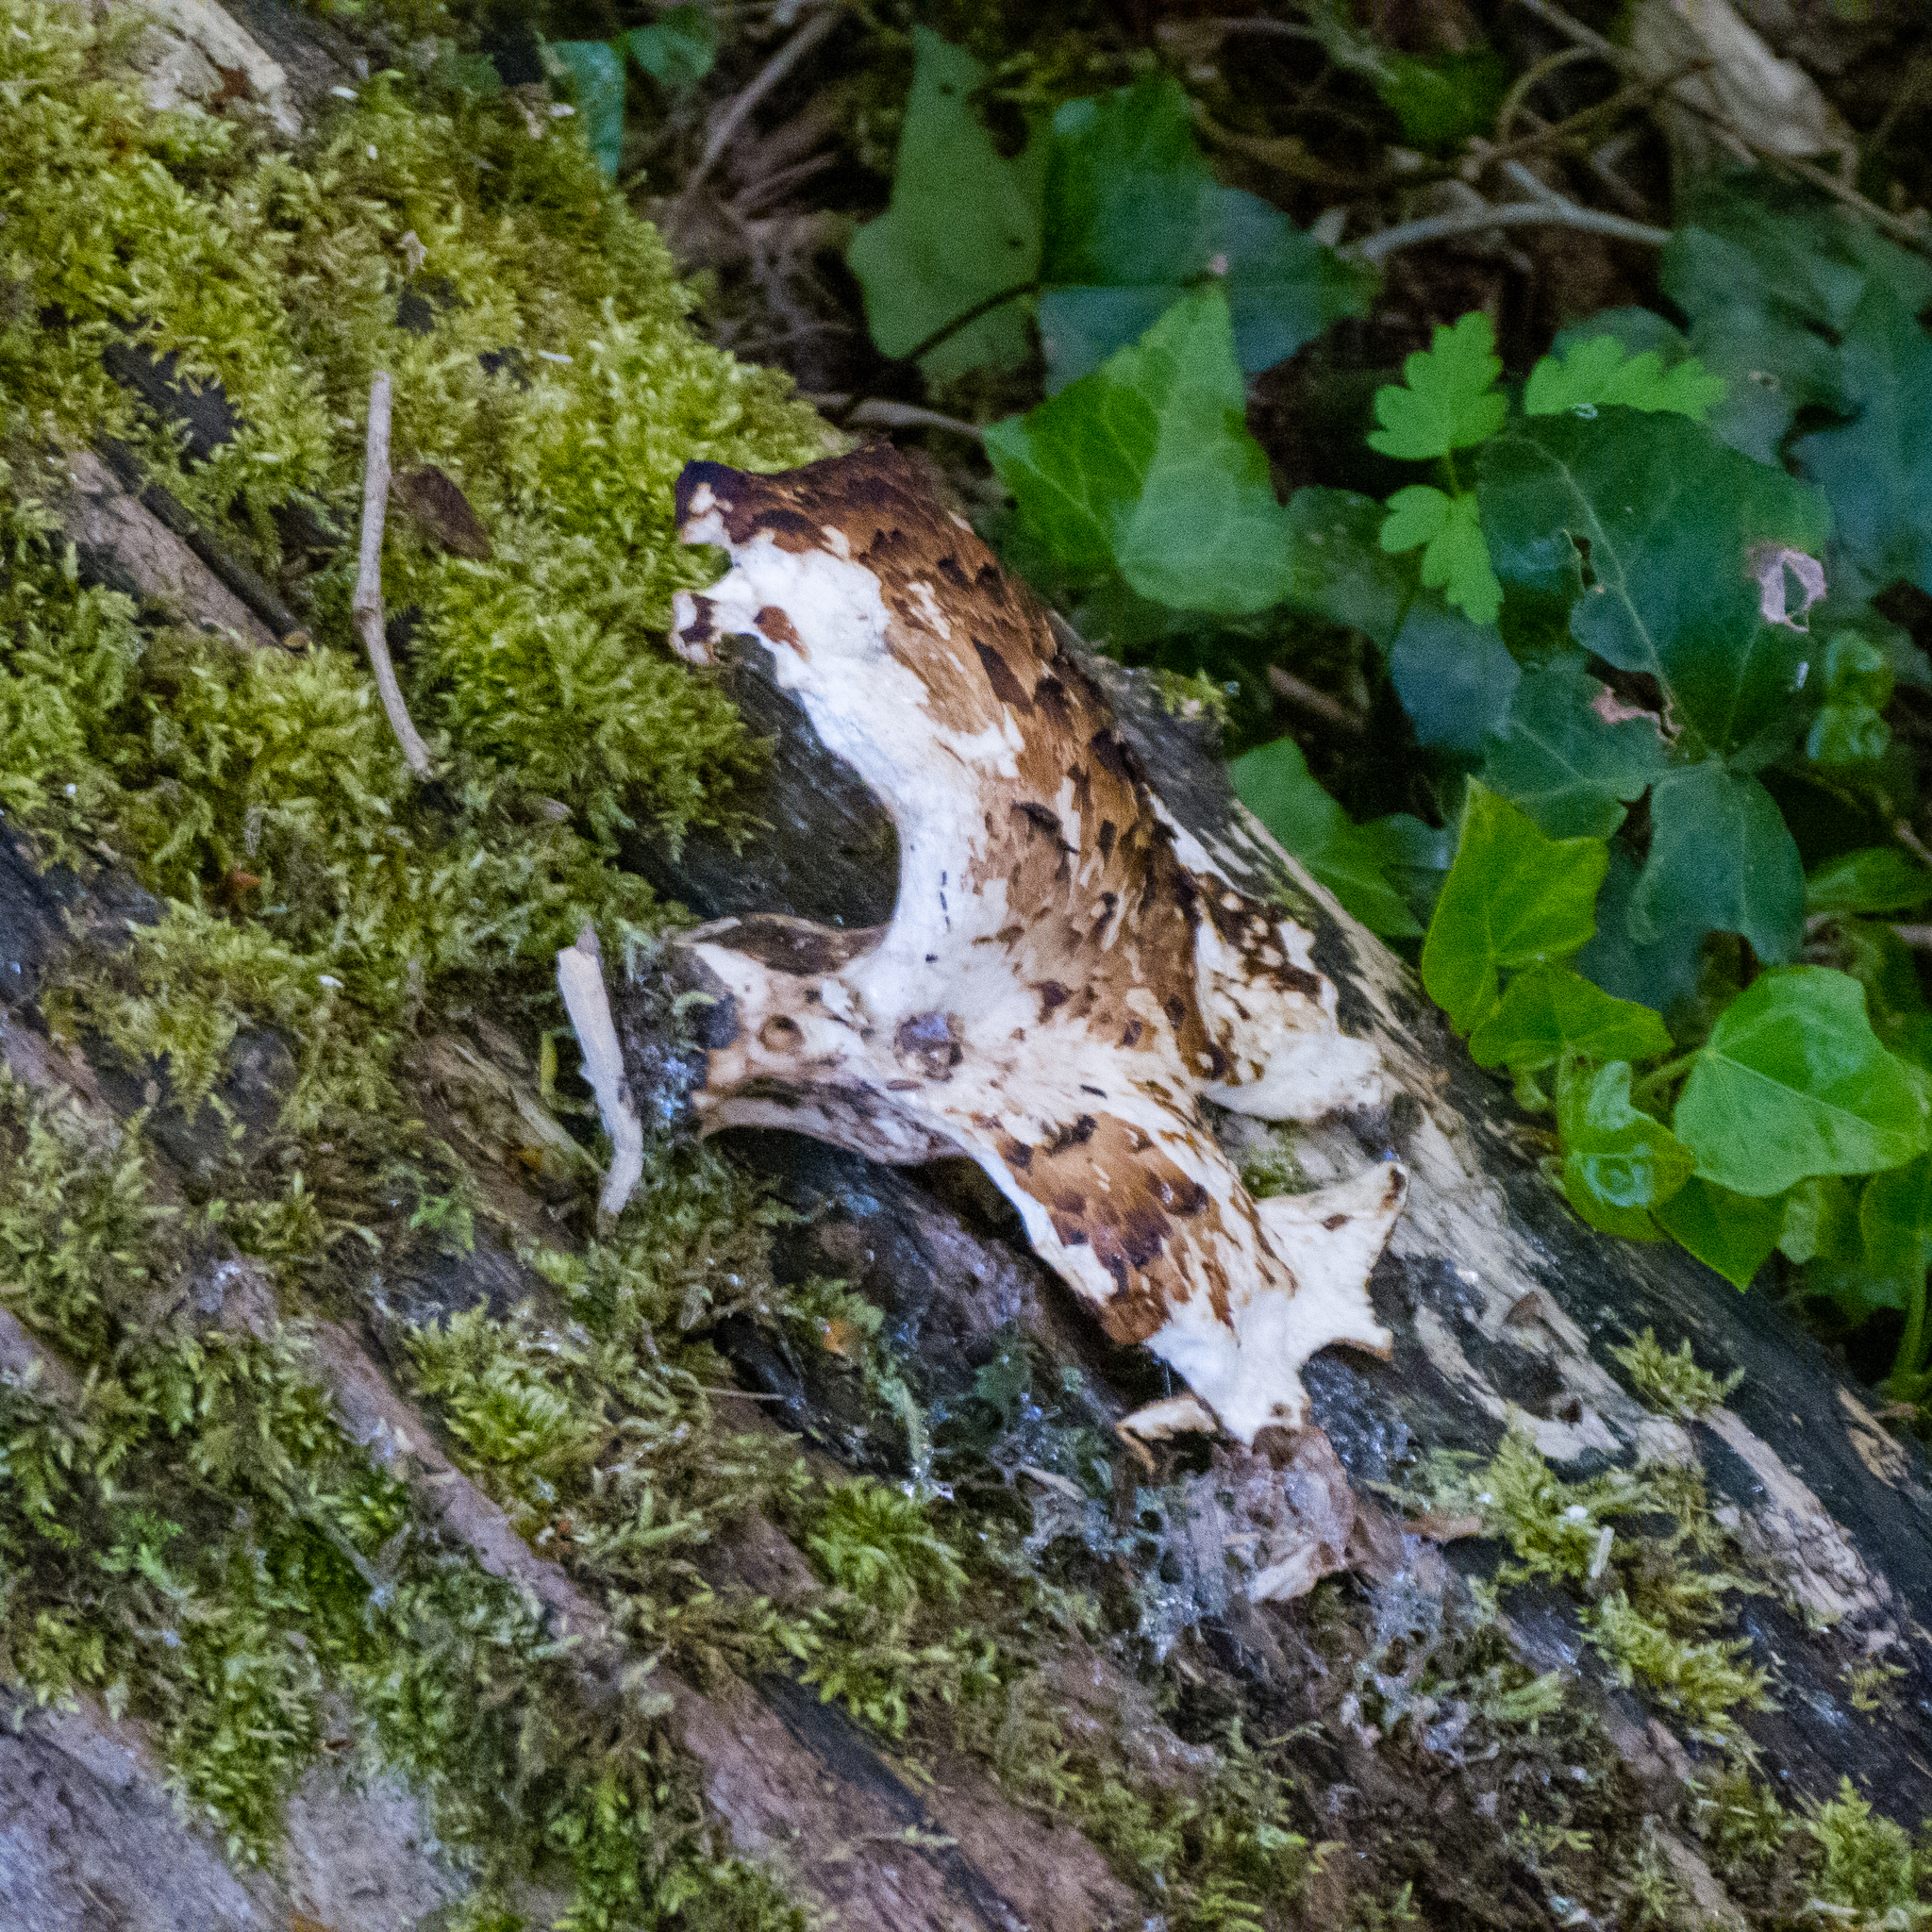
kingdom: Fungi
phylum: Basidiomycota
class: Agaricomycetes
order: Polyporales
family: Polyporaceae
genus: Cerioporus
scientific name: Cerioporus squamosus
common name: Dryad's saddle
